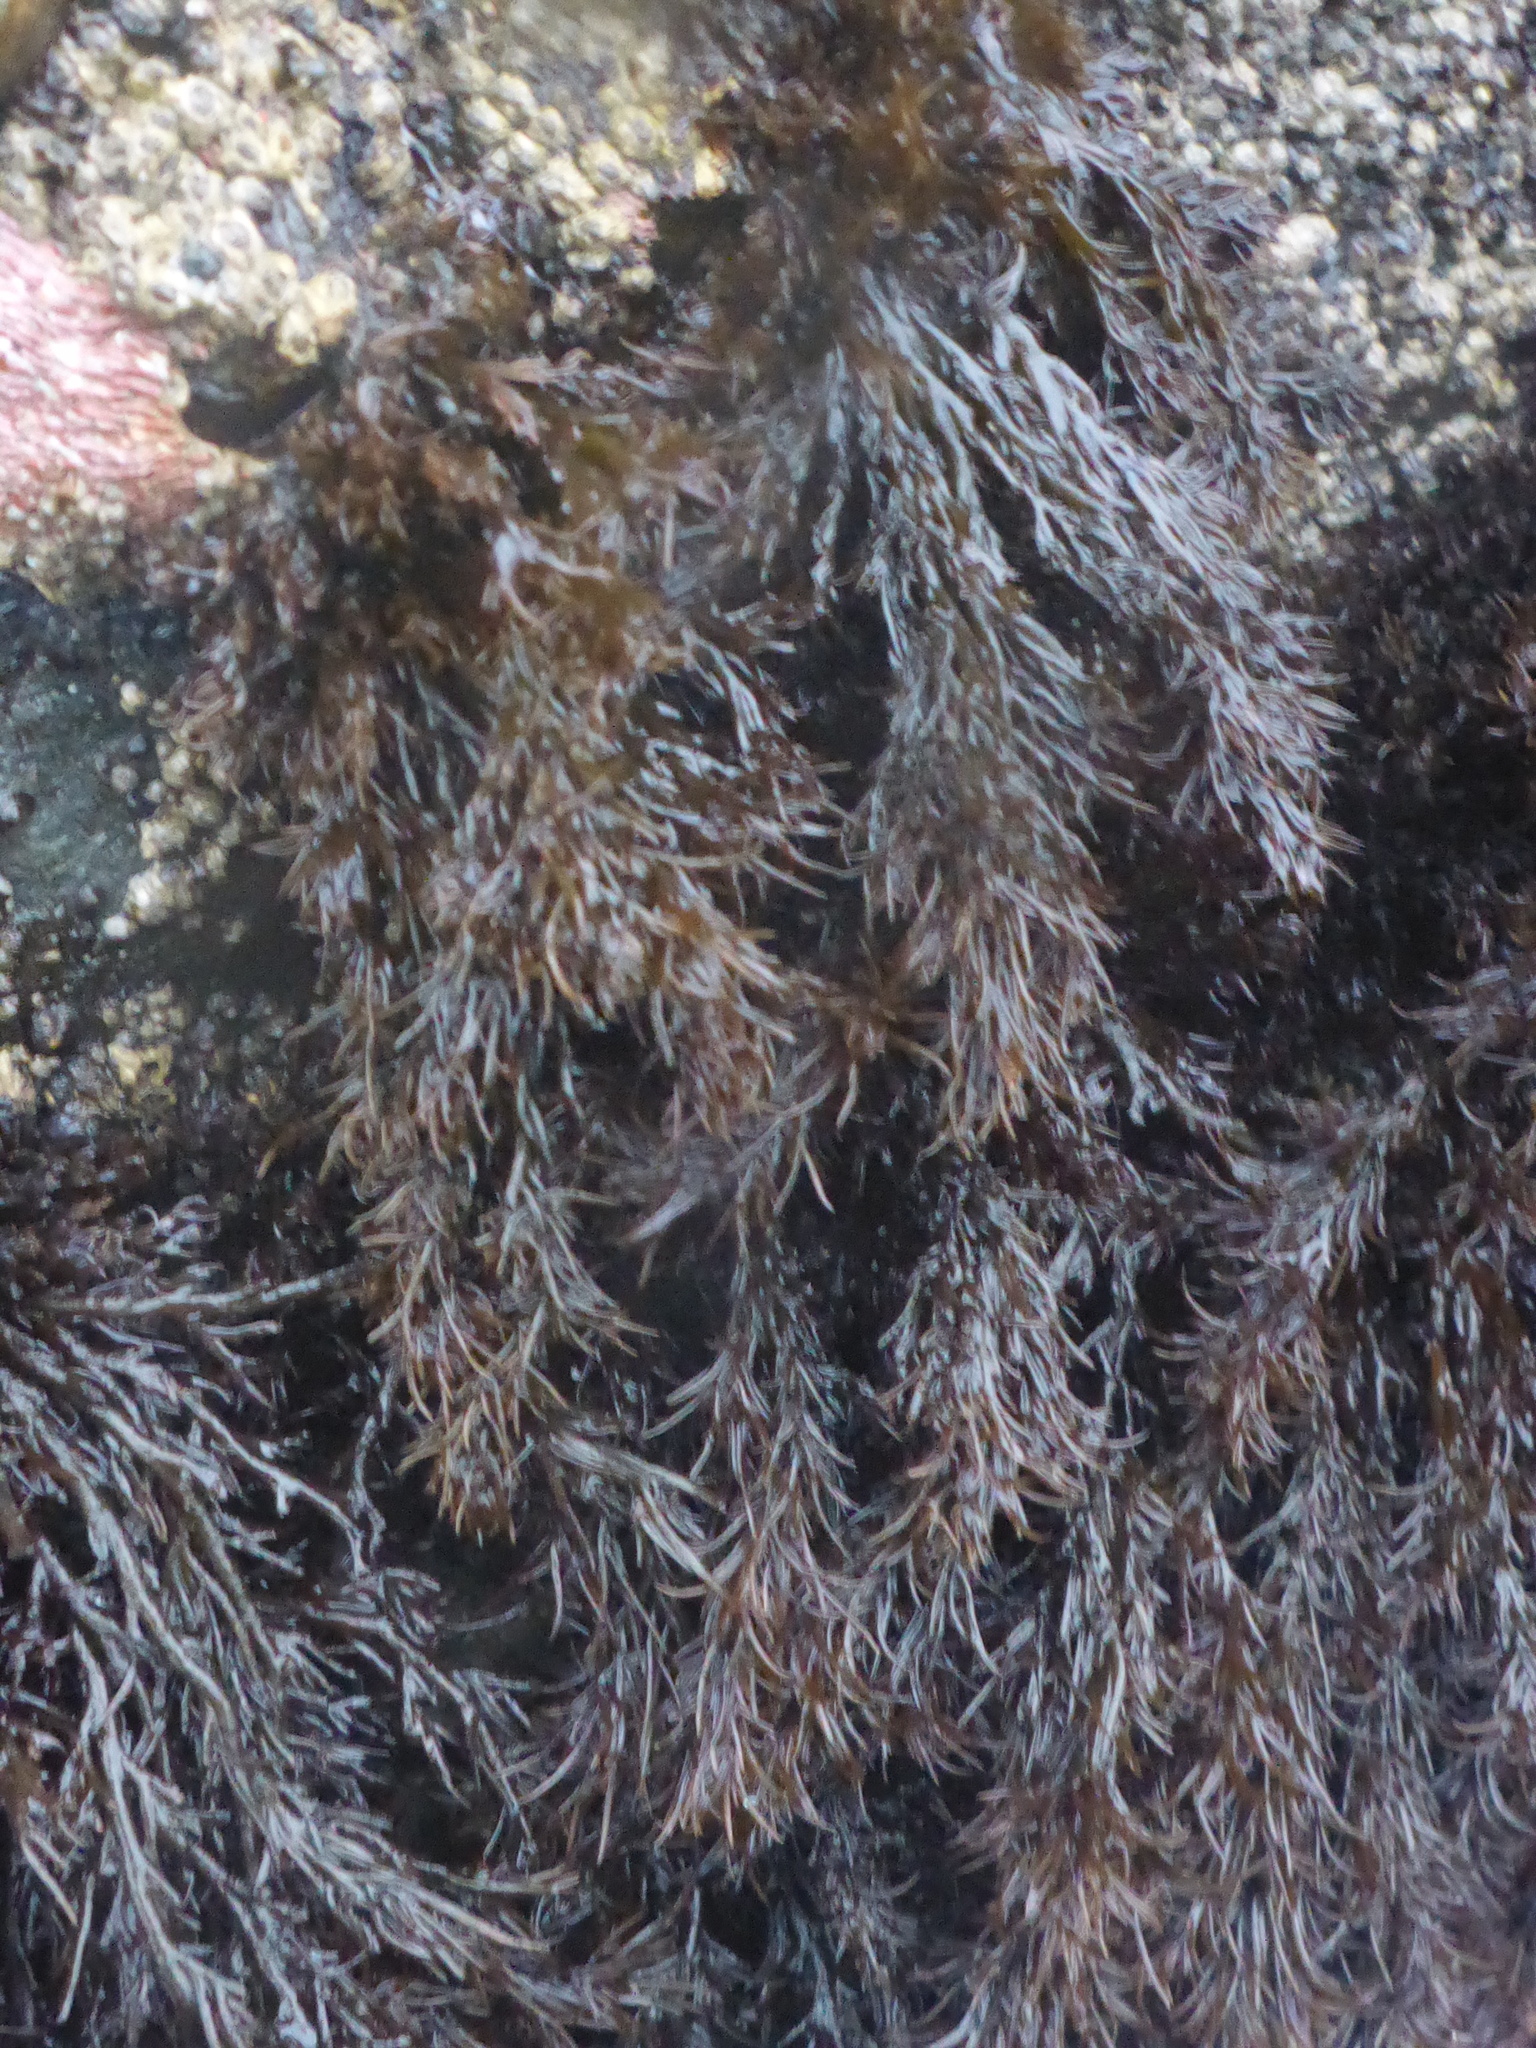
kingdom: Plantae
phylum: Rhodophyta
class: Florideophyceae
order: Ceramiales
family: Rhodomelaceae
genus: Neorhodomela
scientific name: Neorhodomela larix
